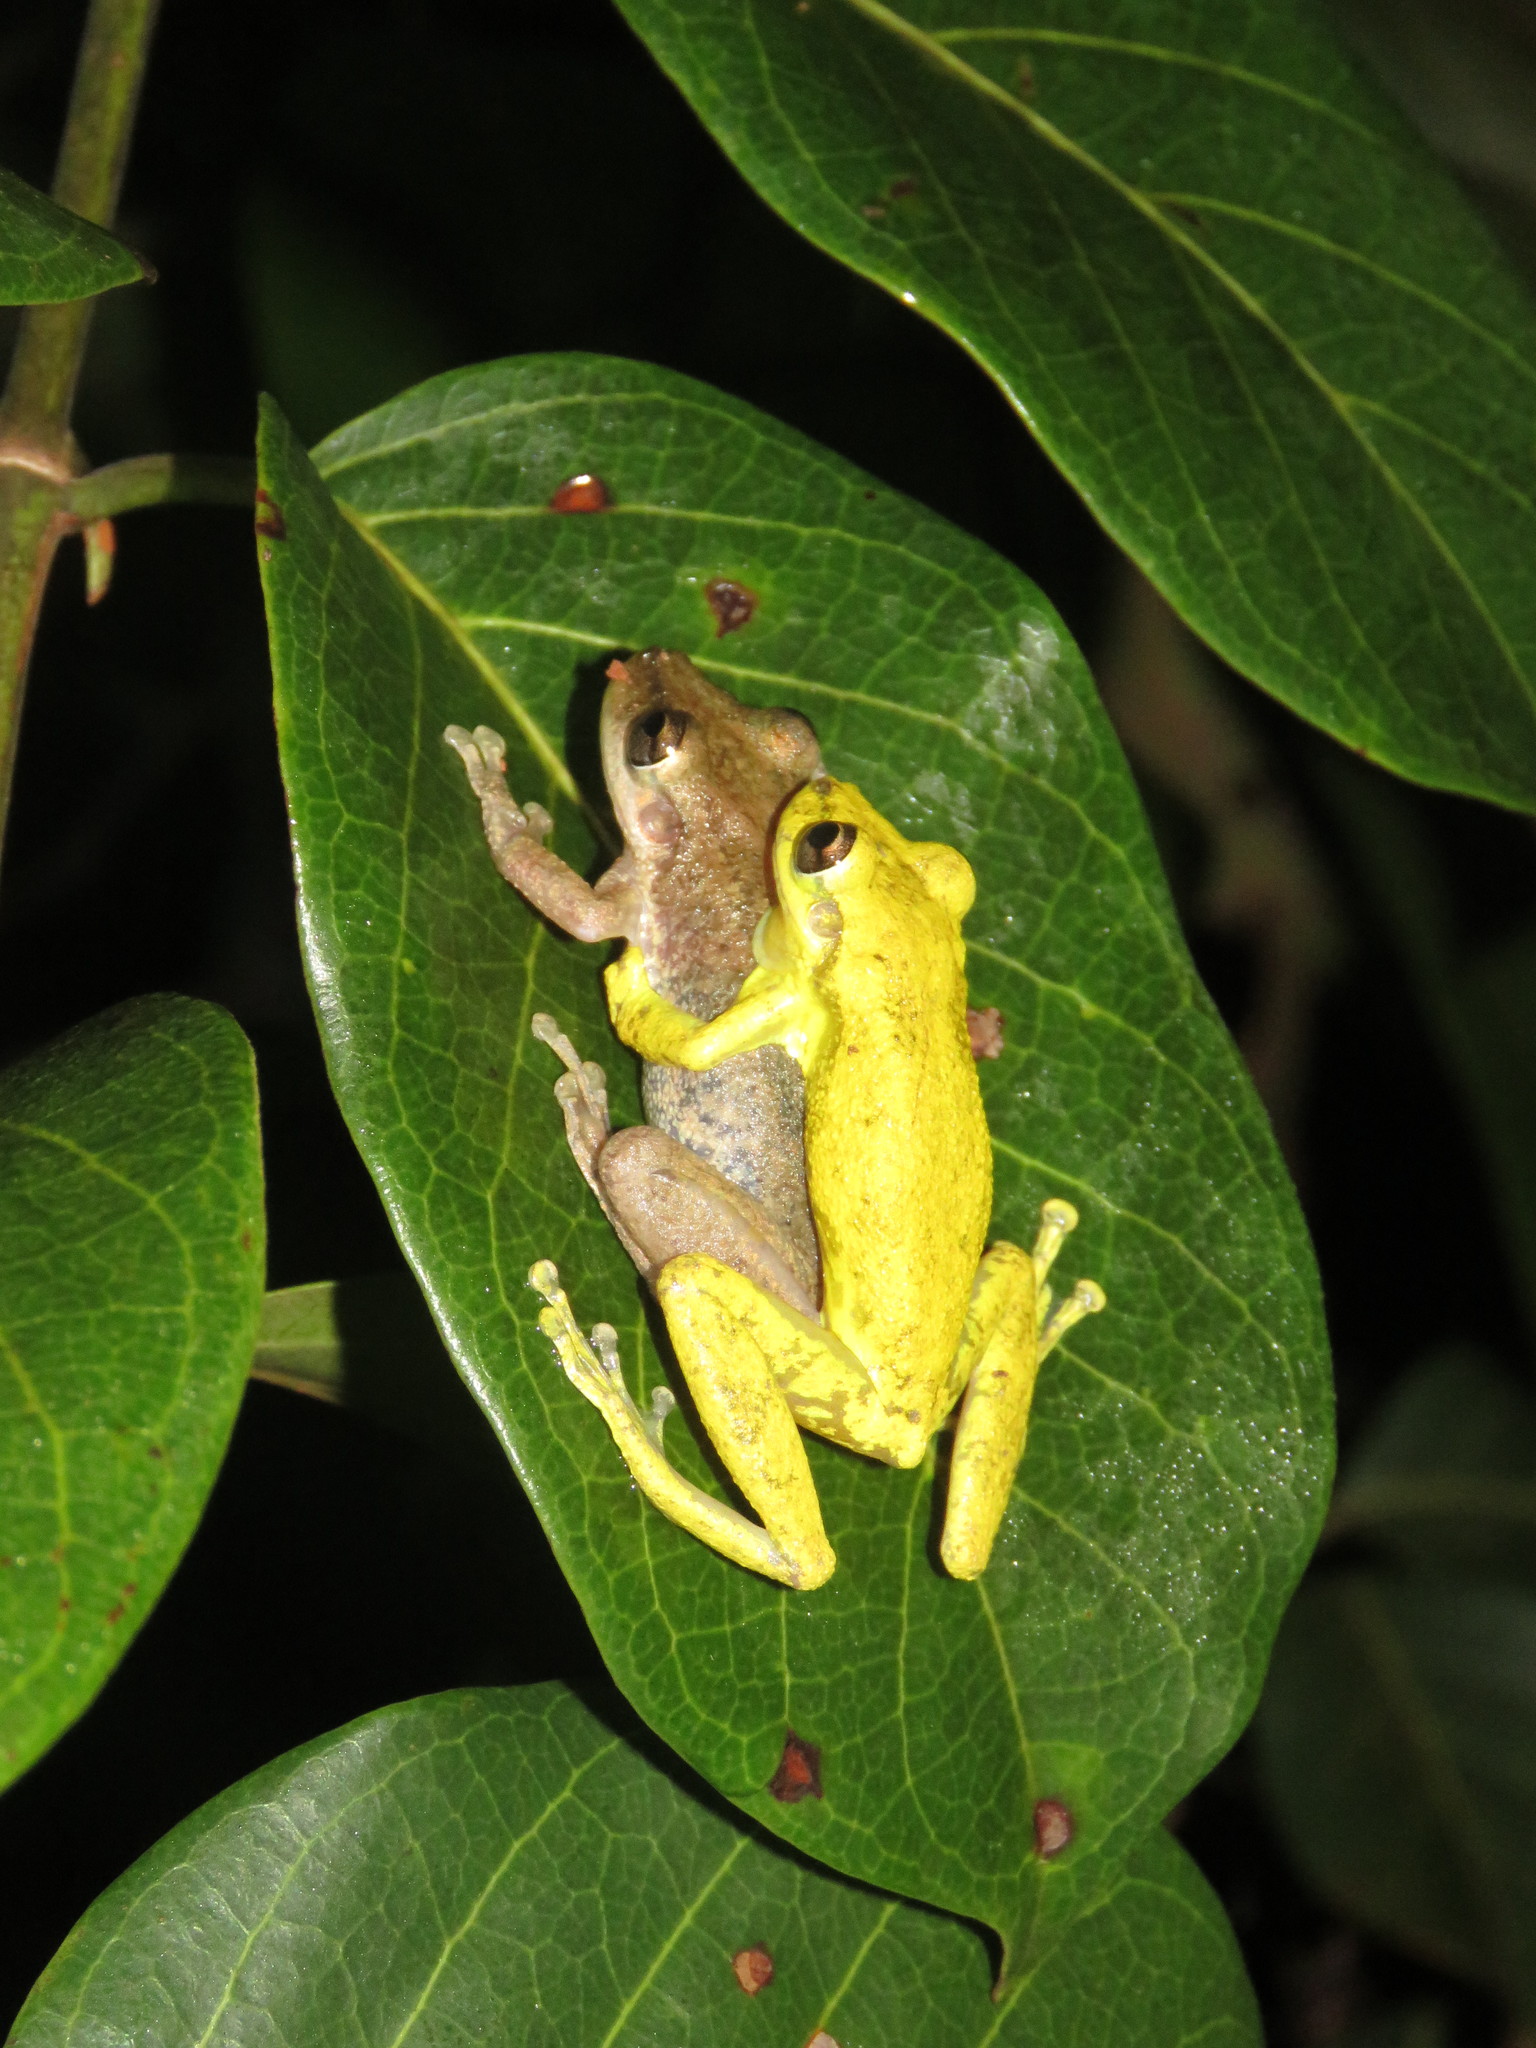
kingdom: Animalia
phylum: Chordata
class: Amphibia
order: Anura
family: Hylidae
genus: Scinax
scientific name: Scinax ruber
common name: Red snouted treefrog
